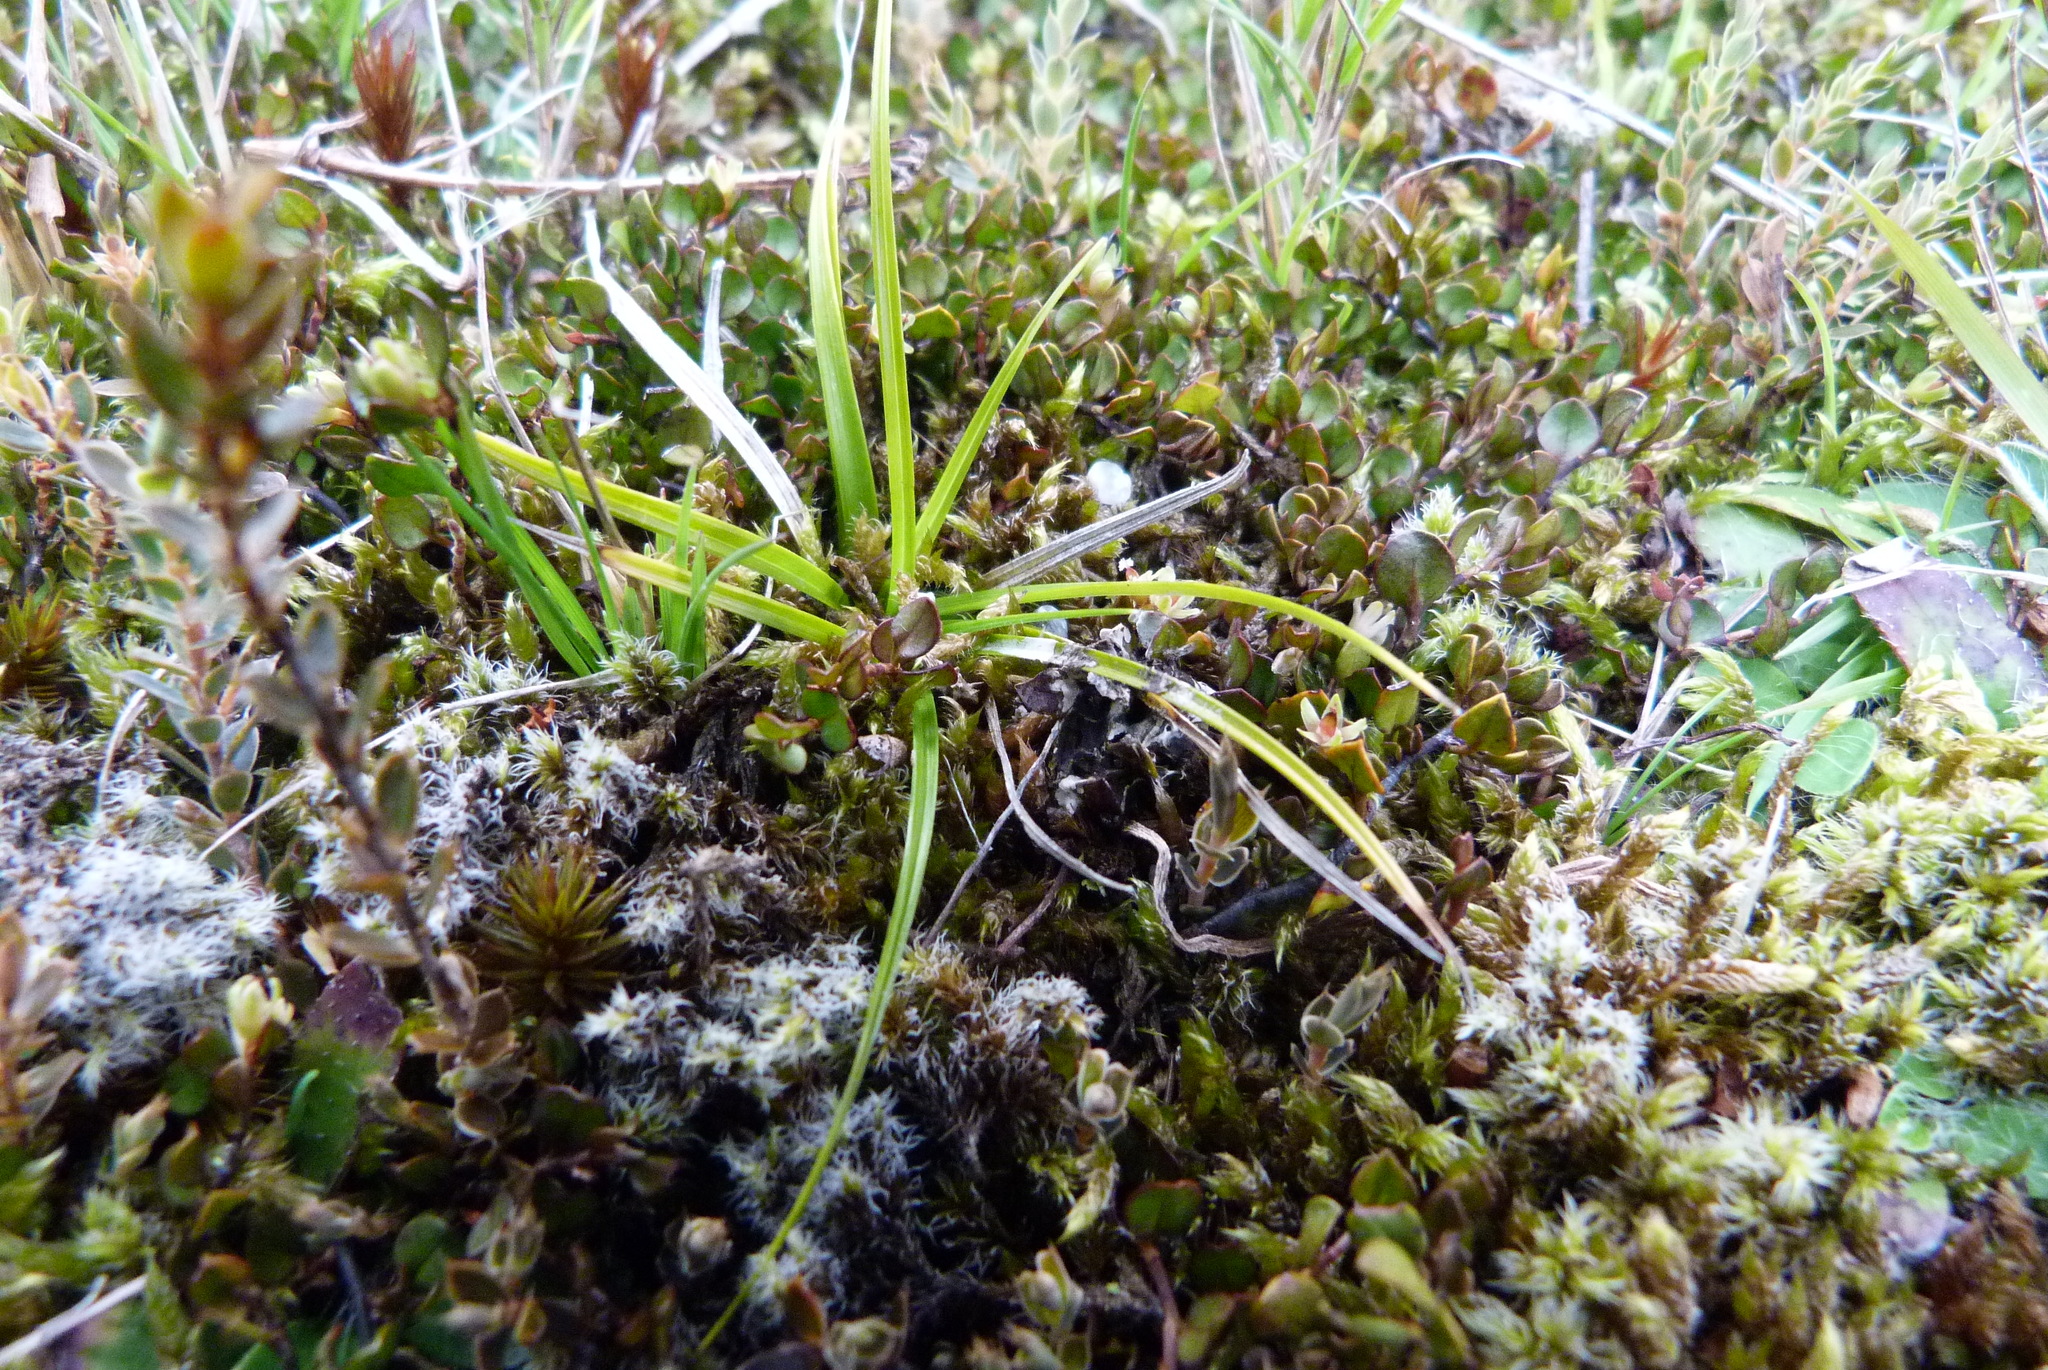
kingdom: Plantae
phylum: Tracheophyta
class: Liliopsida
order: Poales
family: Cyperaceae
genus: Carex
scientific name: Carex breviculmis
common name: Asian shortstem sedge
